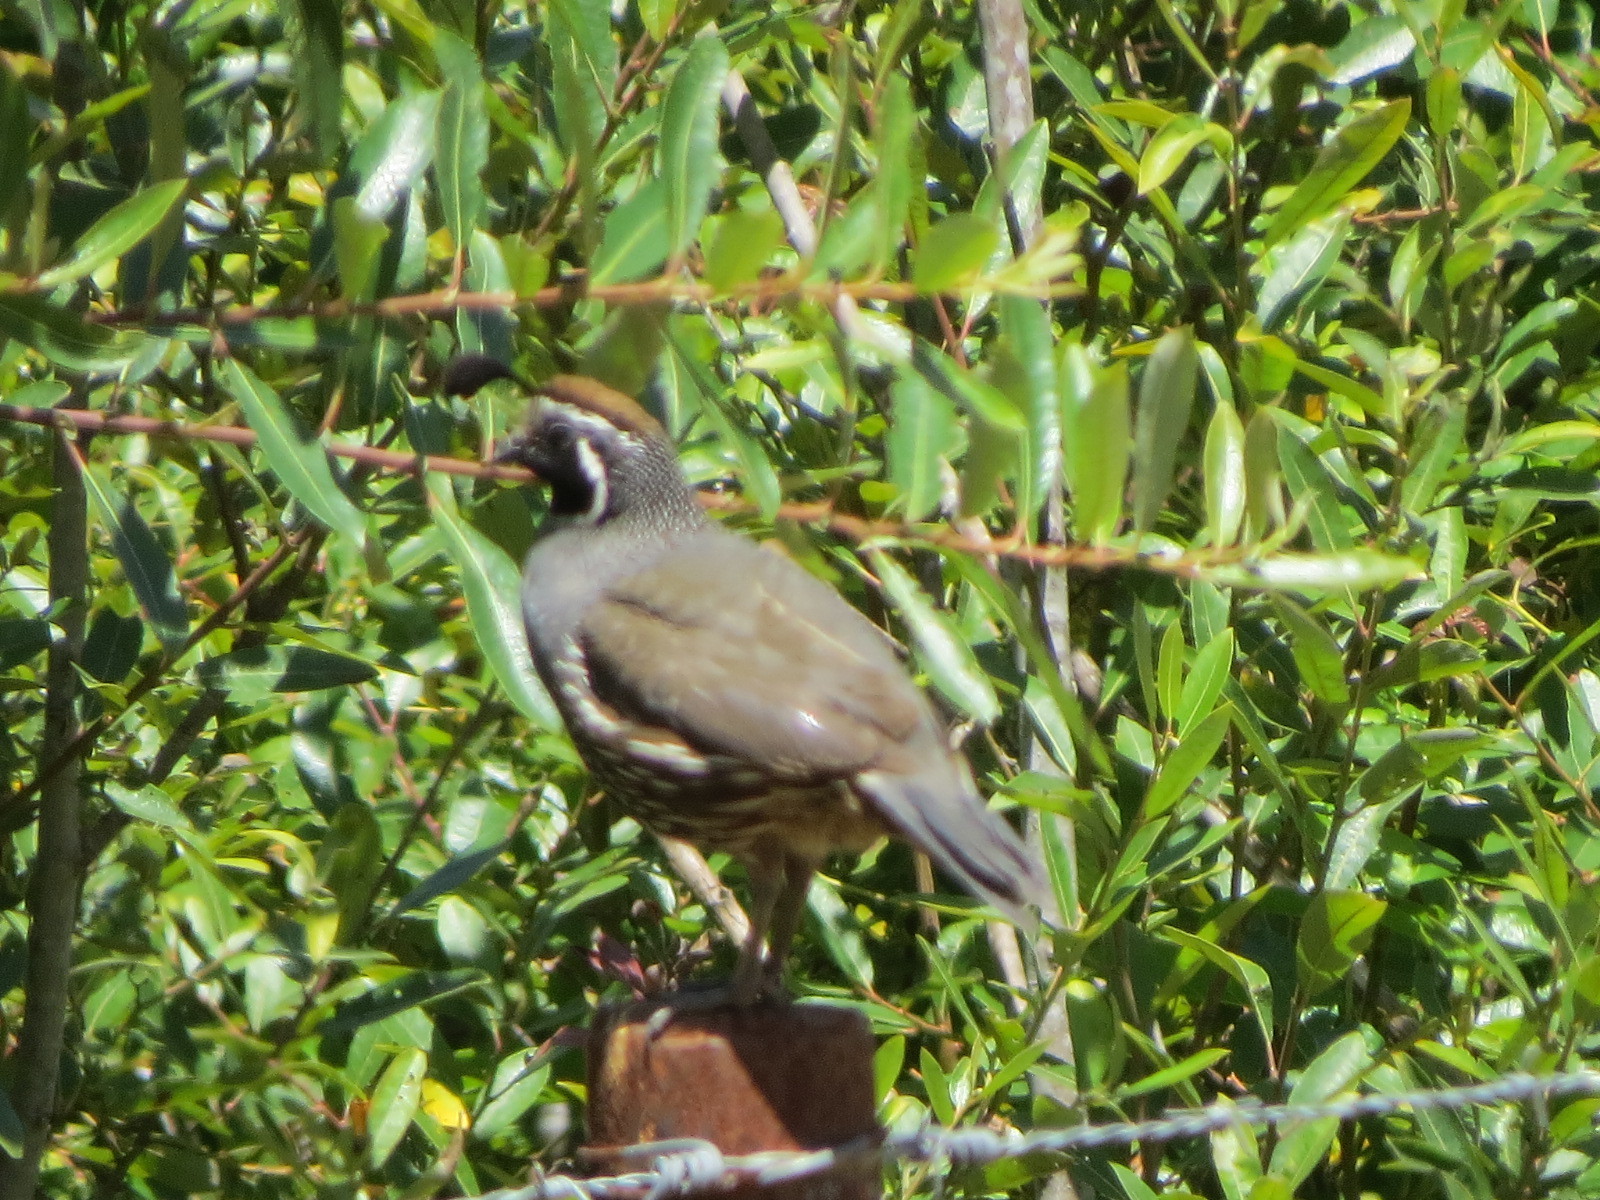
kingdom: Animalia
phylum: Chordata
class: Aves
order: Galliformes
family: Odontophoridae
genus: Callipepla
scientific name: Callipepla californica
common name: California quail
